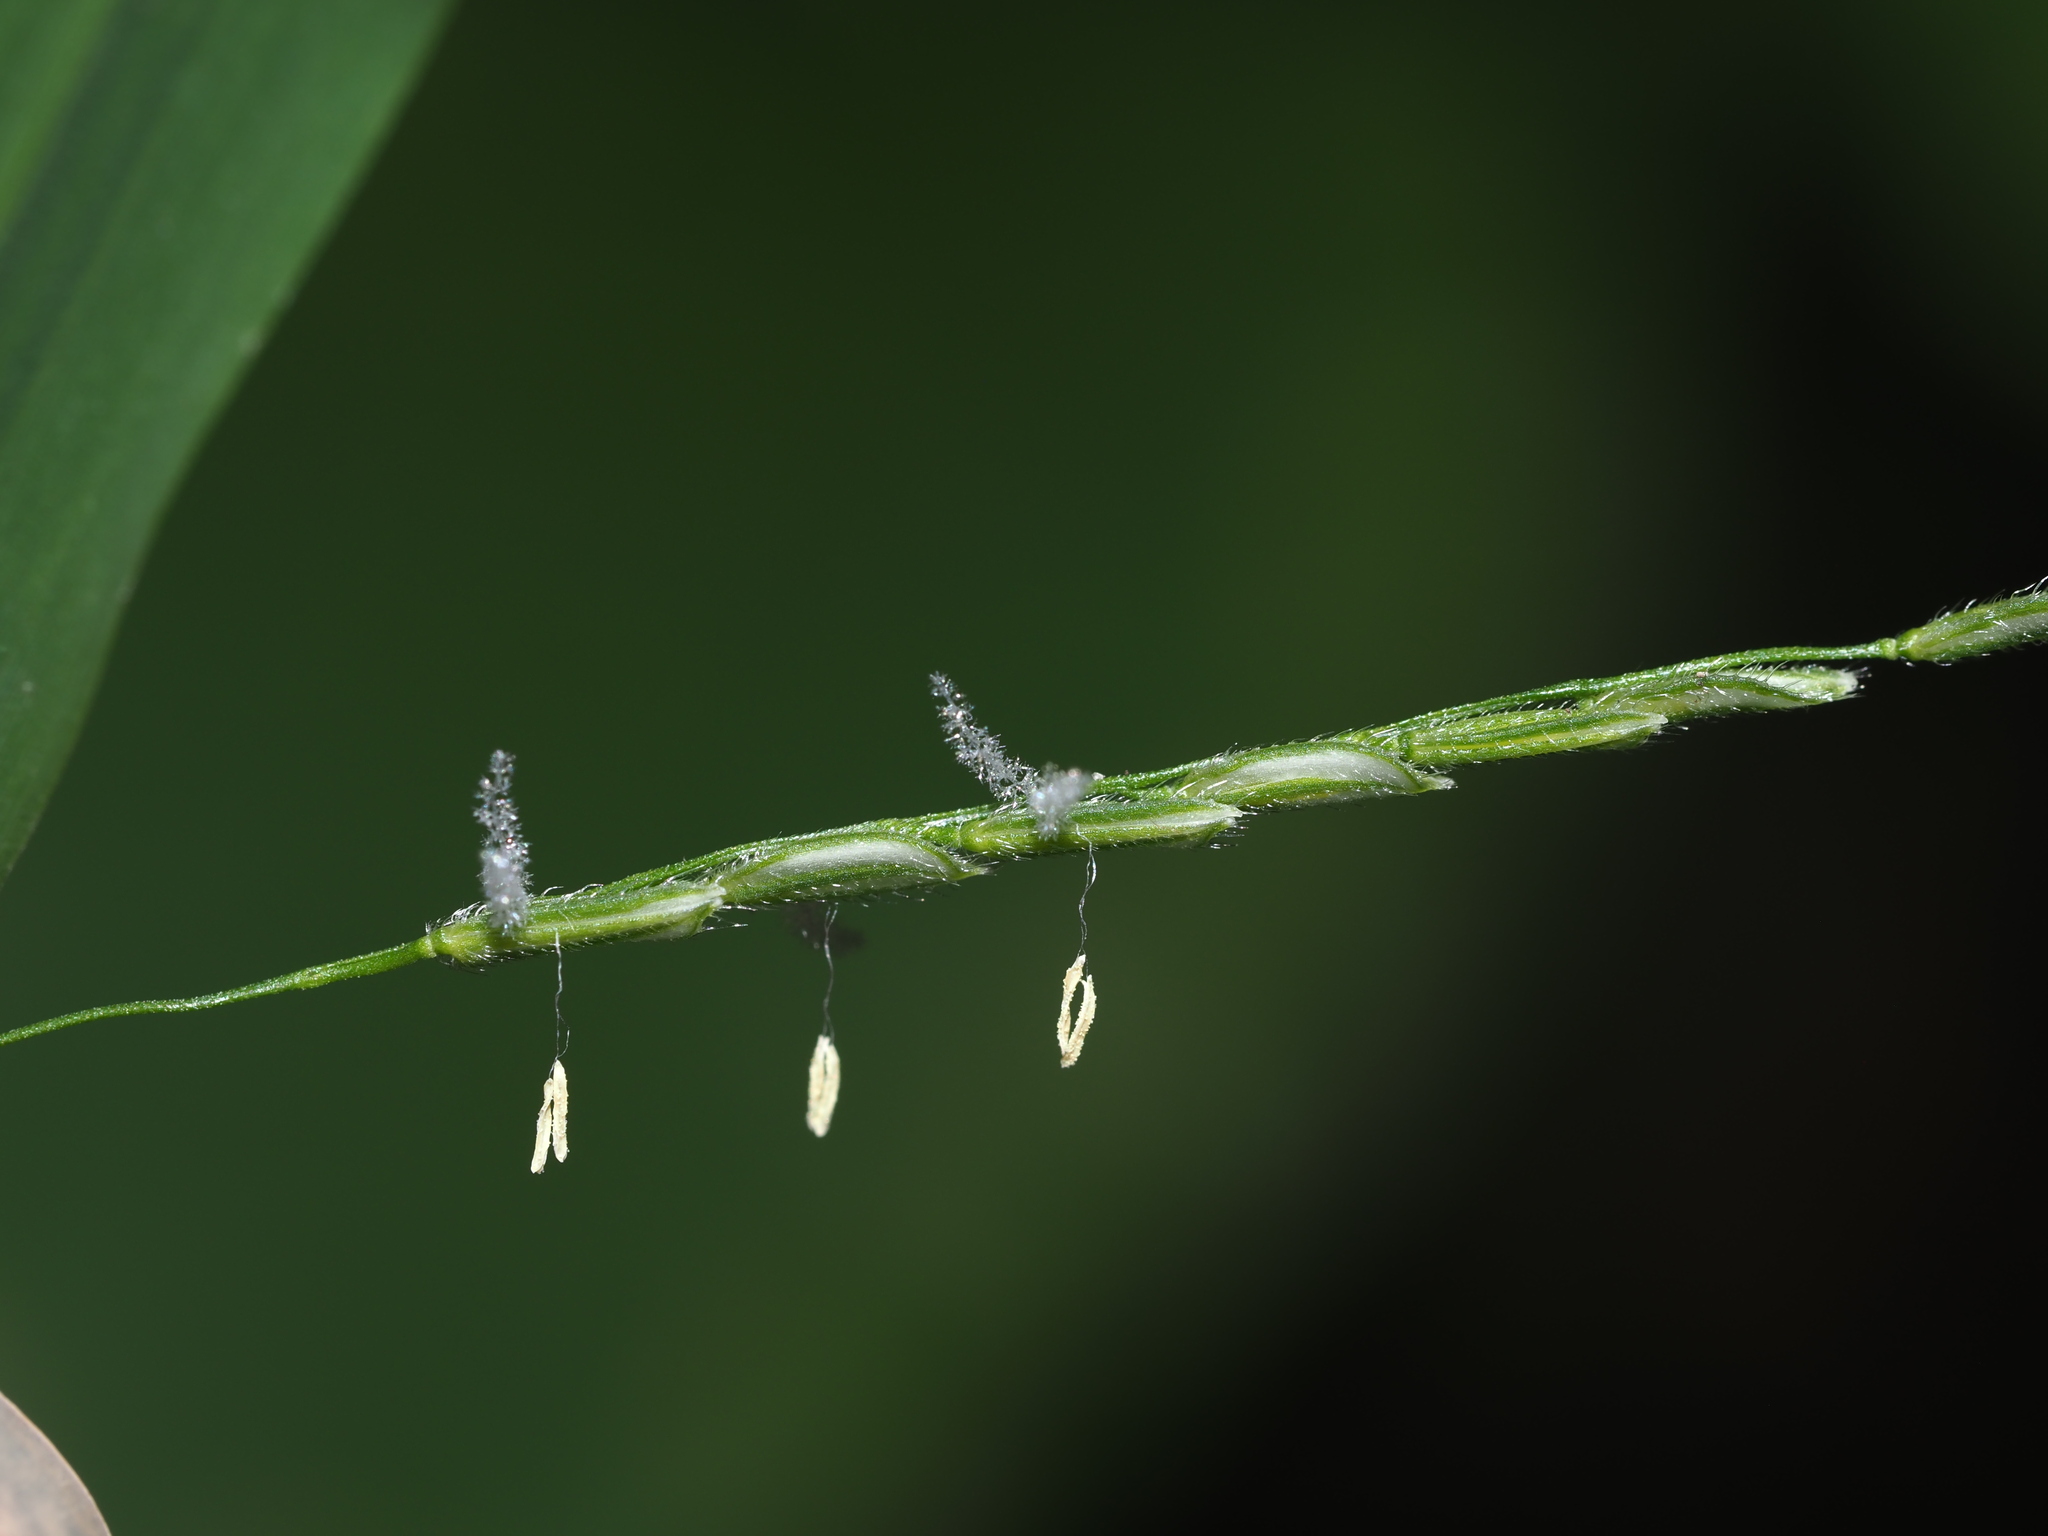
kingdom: Plantae
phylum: Tracheophyta
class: Liliopsida
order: Poales
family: Poaceae
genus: Leersia
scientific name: Leersia virginica
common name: White cutgrass
